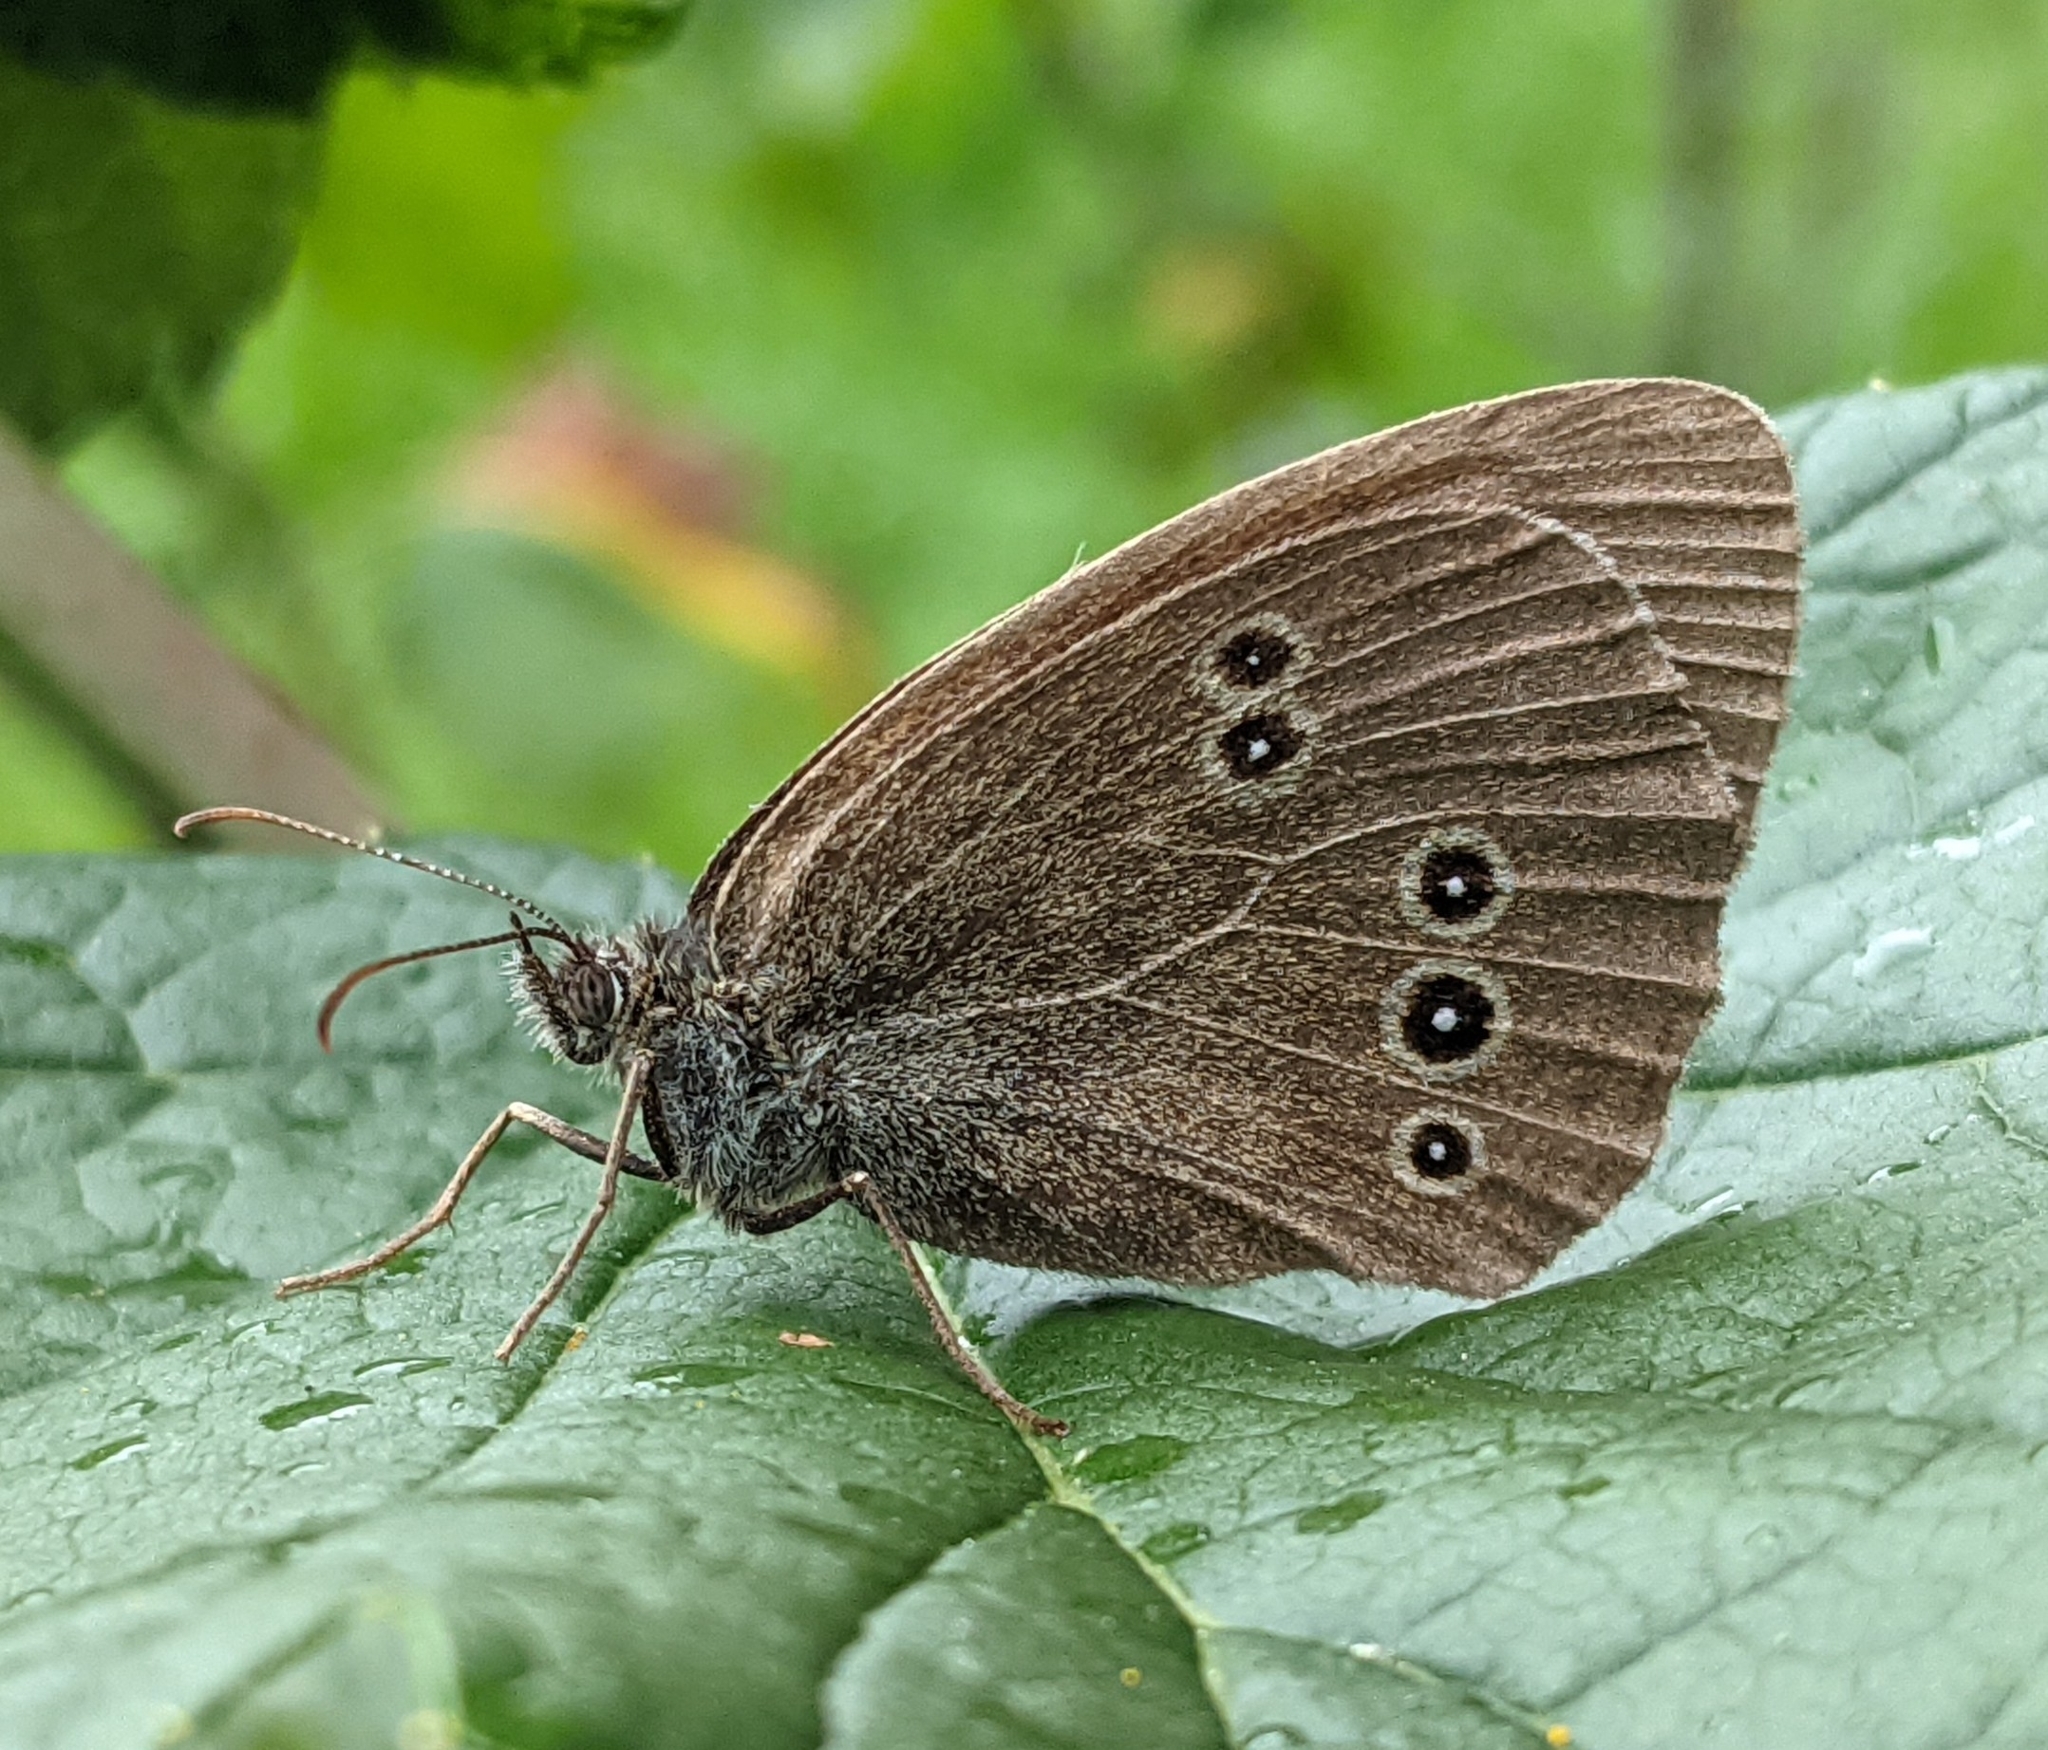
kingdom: Animalia
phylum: Arthropoda
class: Insecta
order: Lepidoptera
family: Nymphalidae
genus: Aphantopus
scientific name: Aphantopus hyperantus
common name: Ringlet
